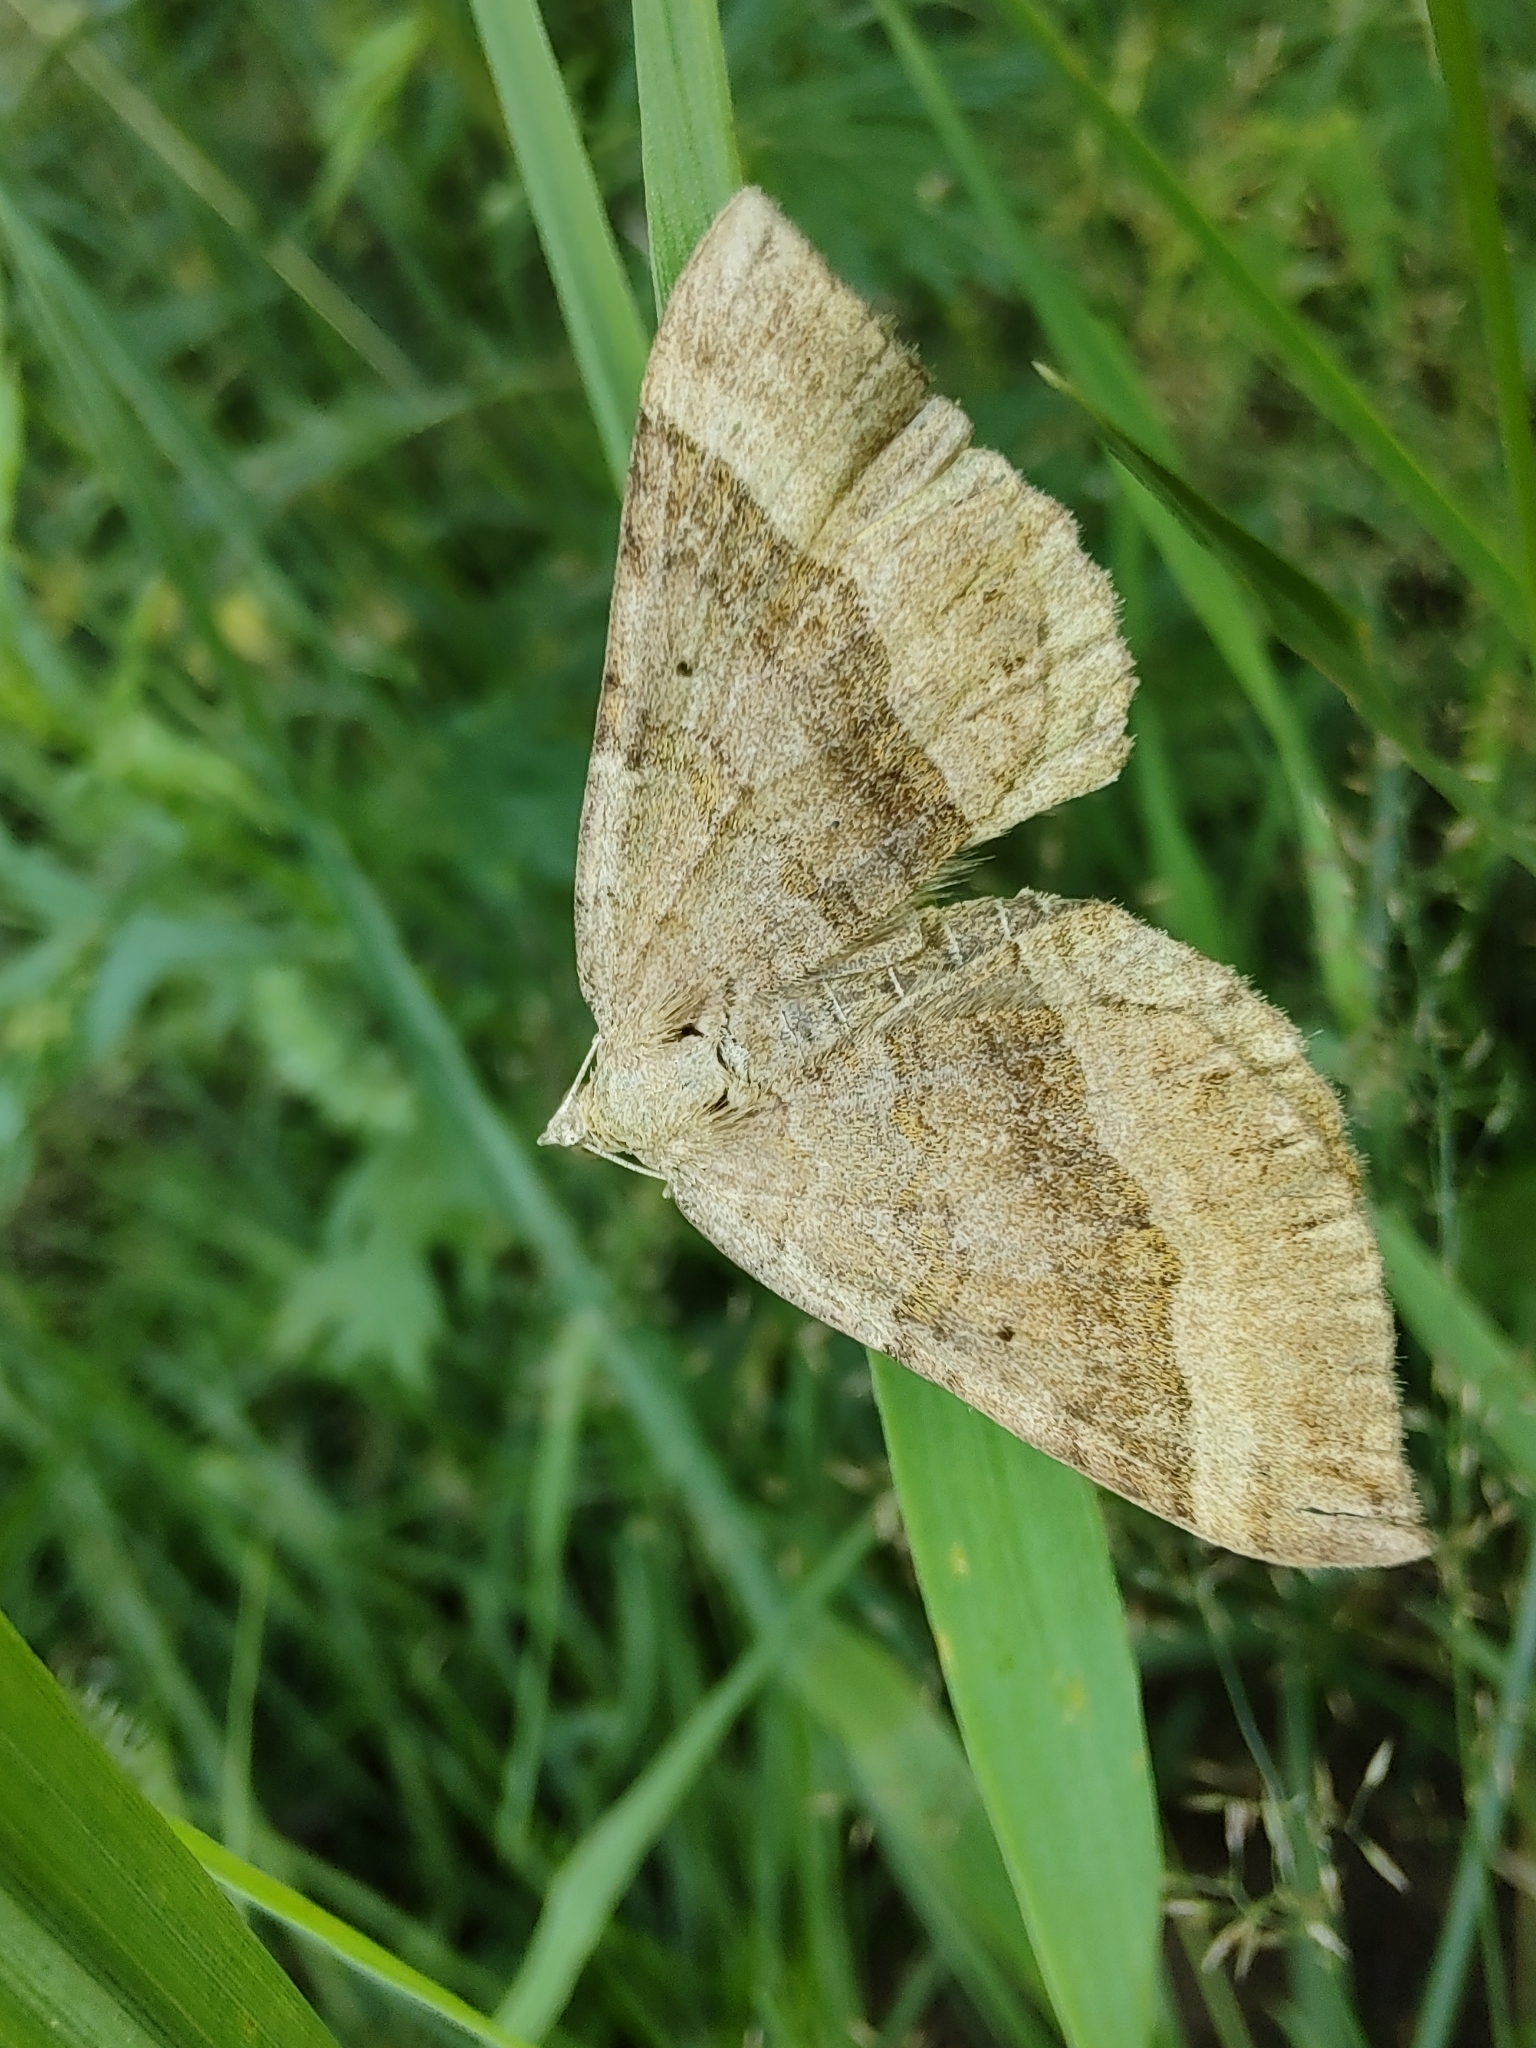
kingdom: Animalia
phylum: Arthropoda
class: Insecta
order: Lepidoptera
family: Geometridae
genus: Scotopteryx
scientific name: Scotopteryx chenopodiata
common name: Shaded broad-bar
